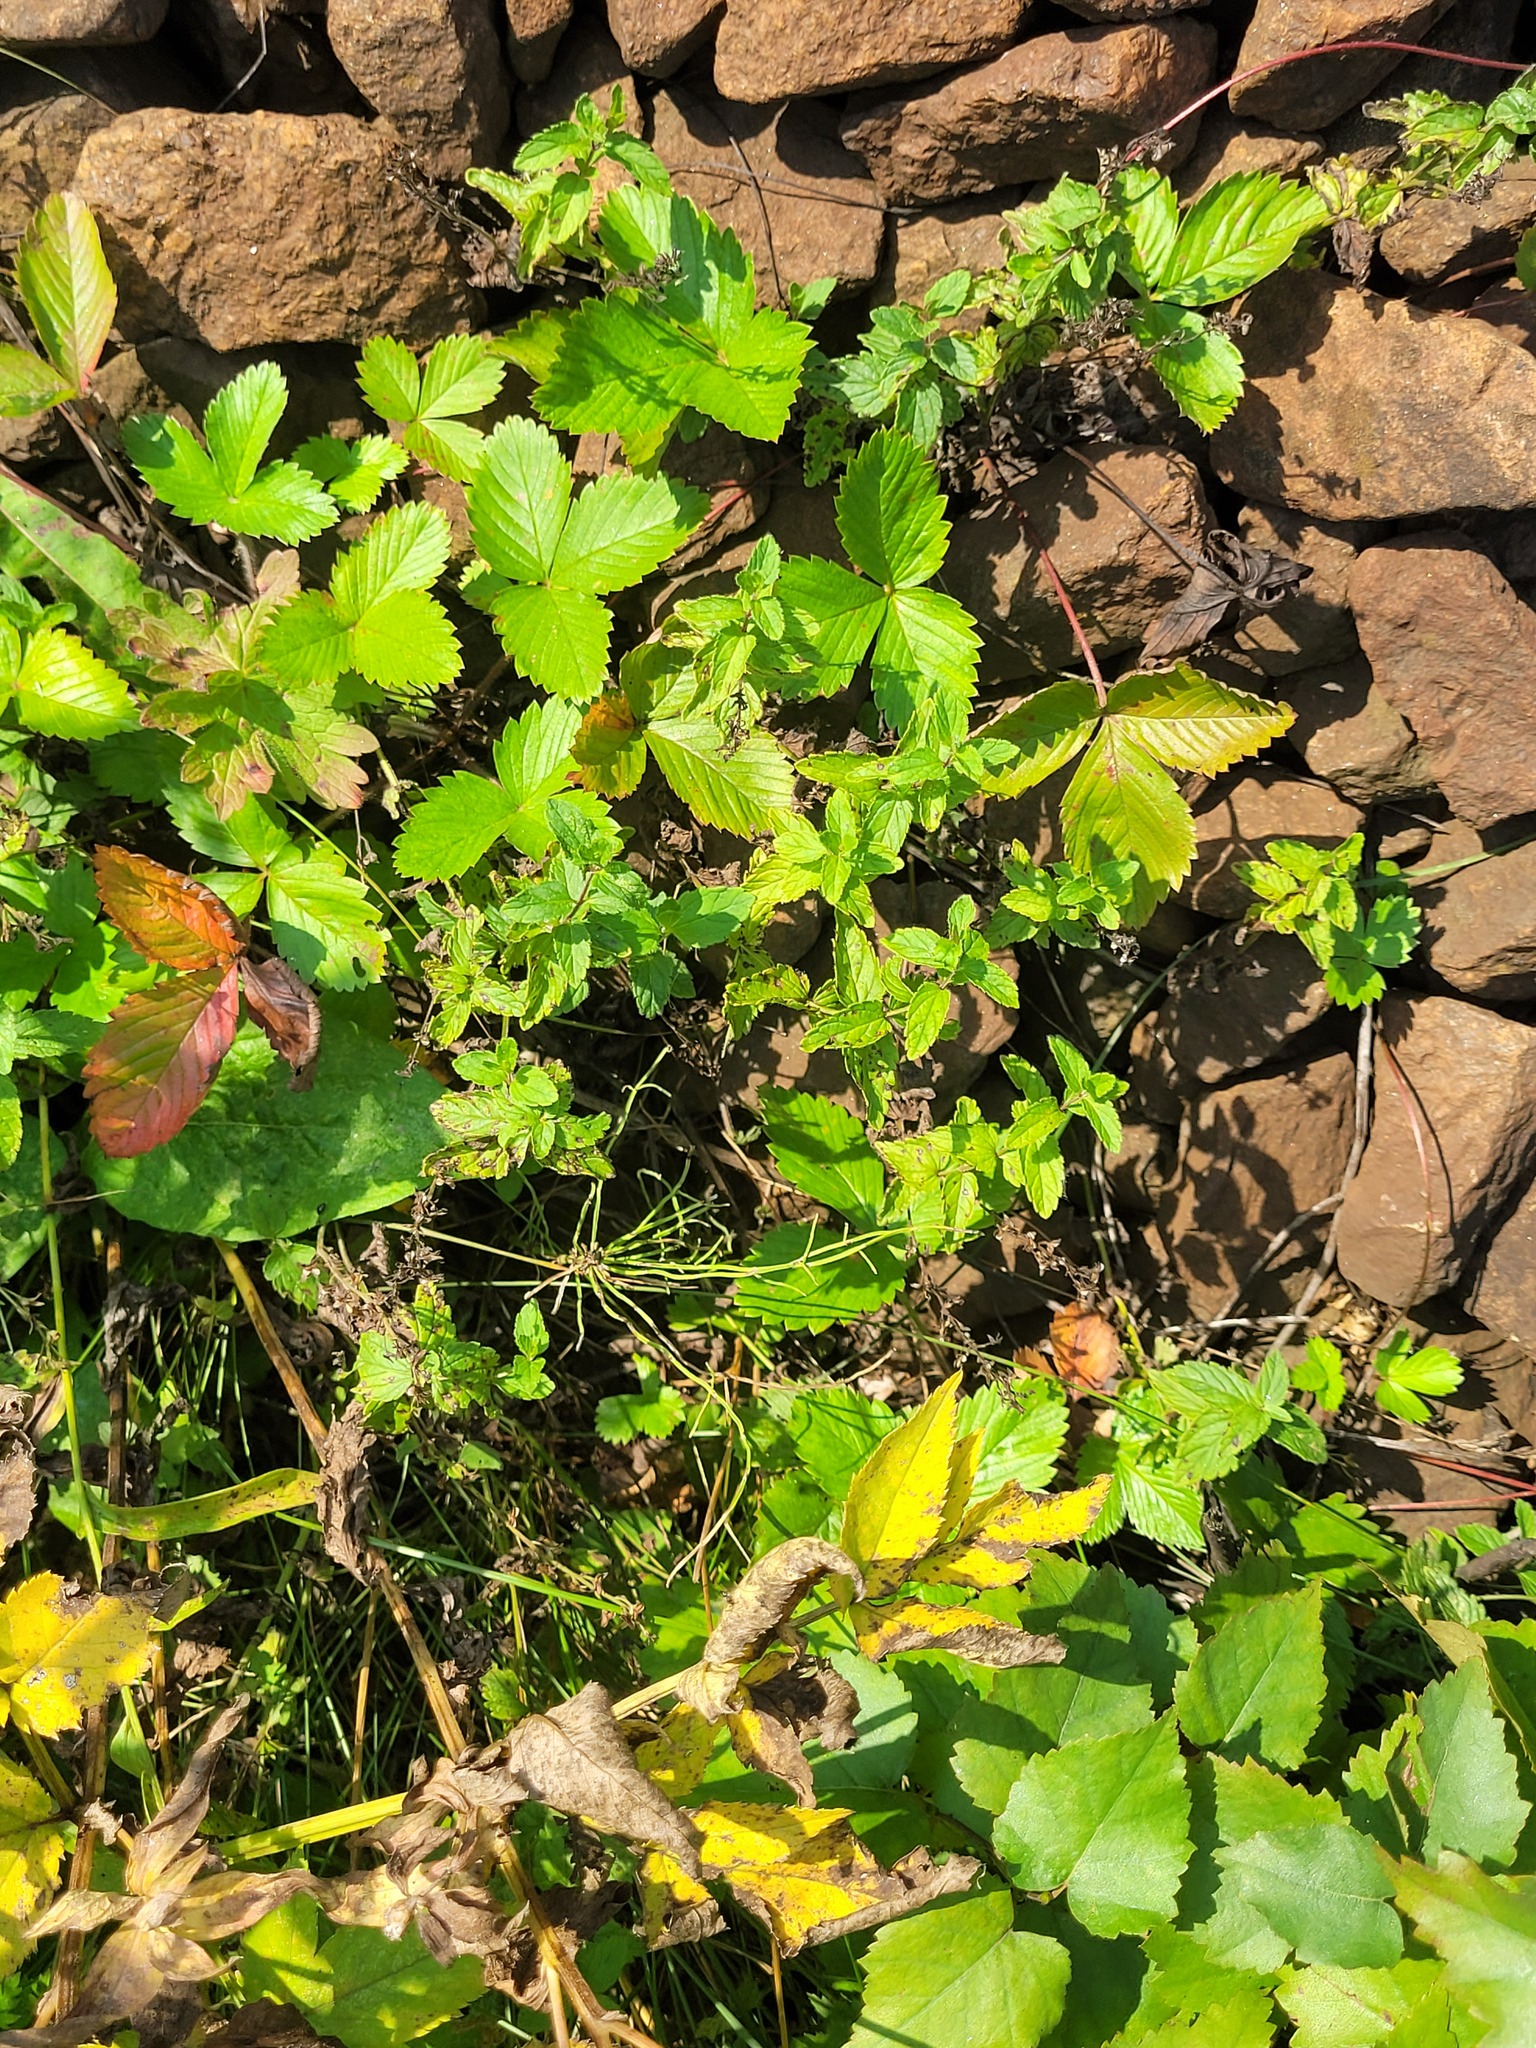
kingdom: Plantae
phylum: Tracheophyta
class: Magnoliopsida
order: Lamiales
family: Plantaginaceae
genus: Veronica
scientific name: Veronica chamaedrys
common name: Germander speedwell
